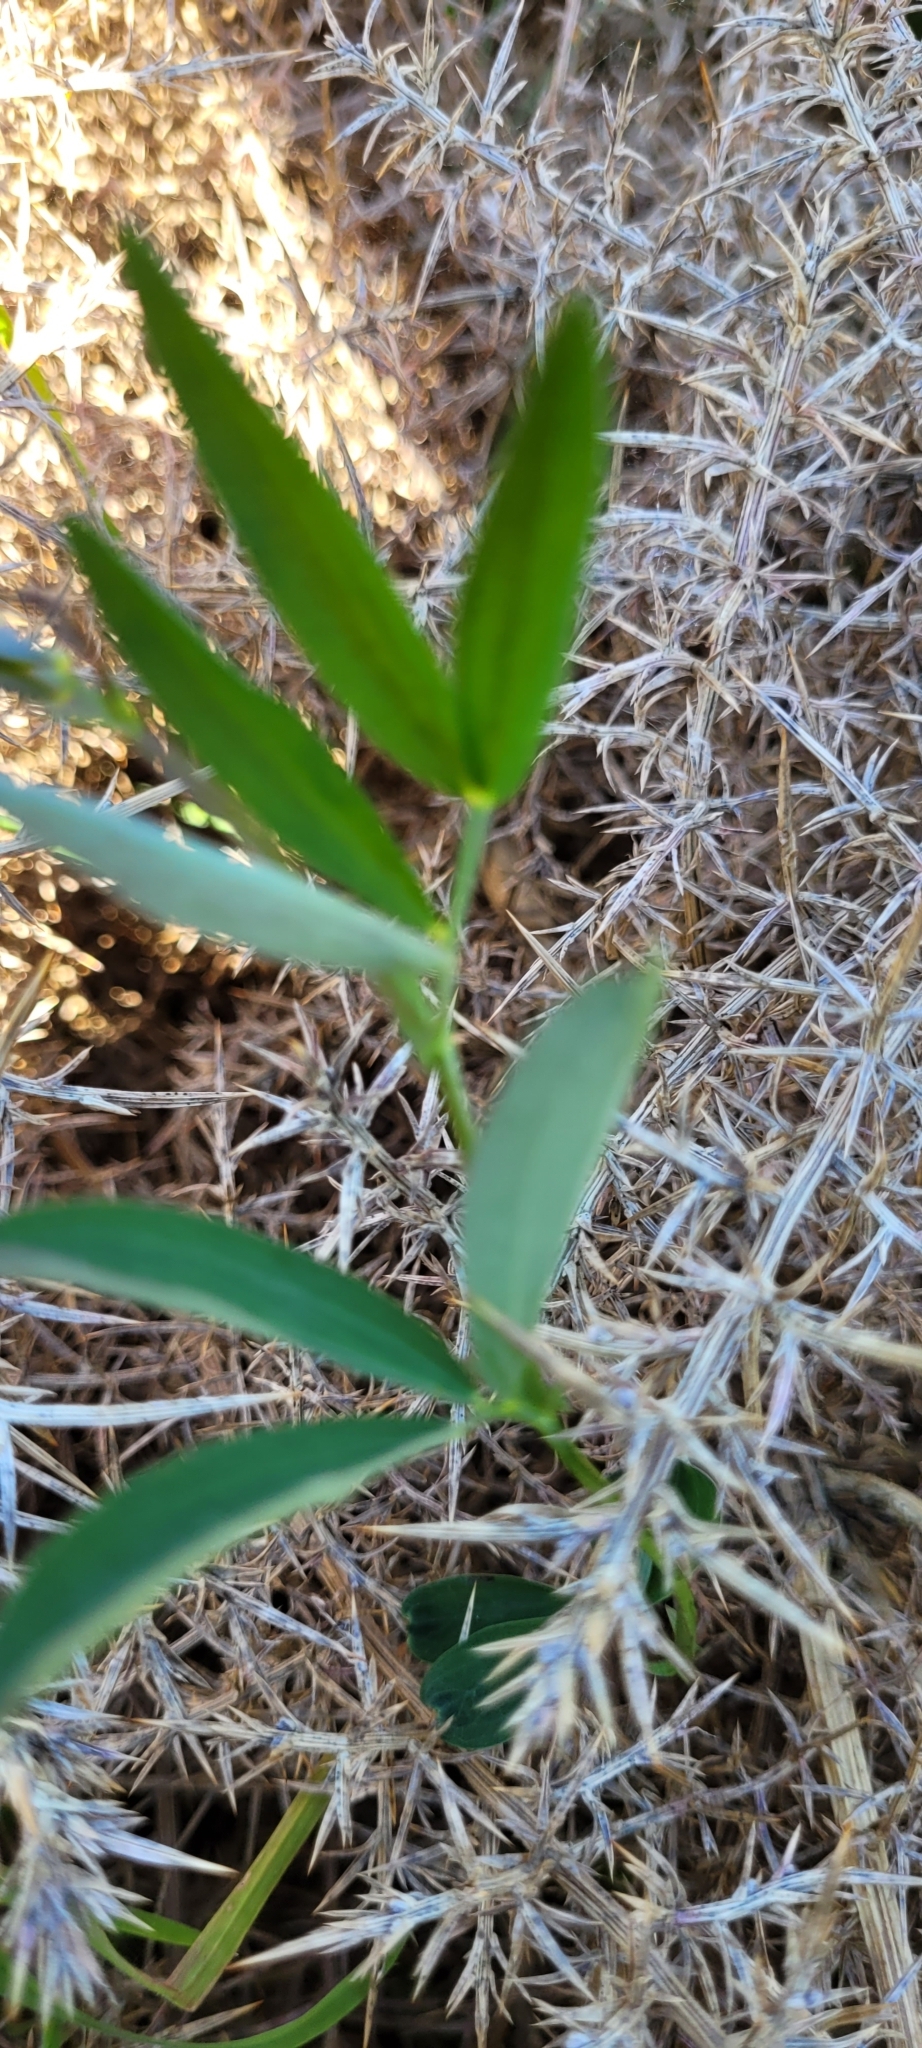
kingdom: Plantae
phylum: Tracheophyta
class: Magnoliopsida
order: Fabales
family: Fabaceae
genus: Lathyrus
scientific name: Lathyrus linifolius
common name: Bitter-vetch
